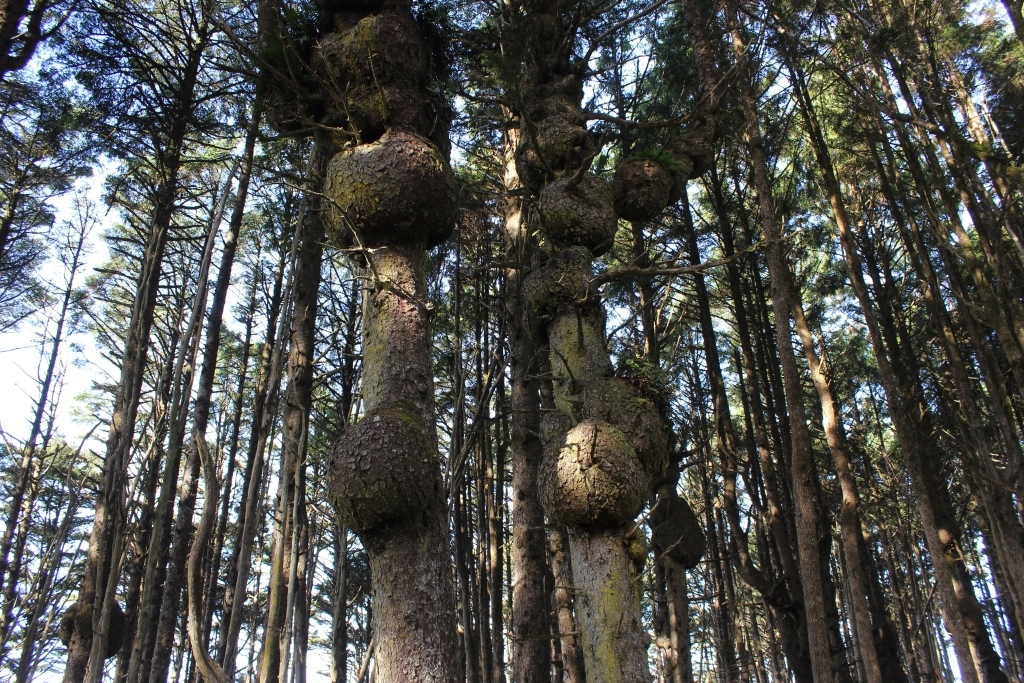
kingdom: Plantae
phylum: Tracheophyta
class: Pinopsida
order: Pinales
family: Pinaceae
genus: Picea
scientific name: Picea sitchensis
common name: Sitka spruce
